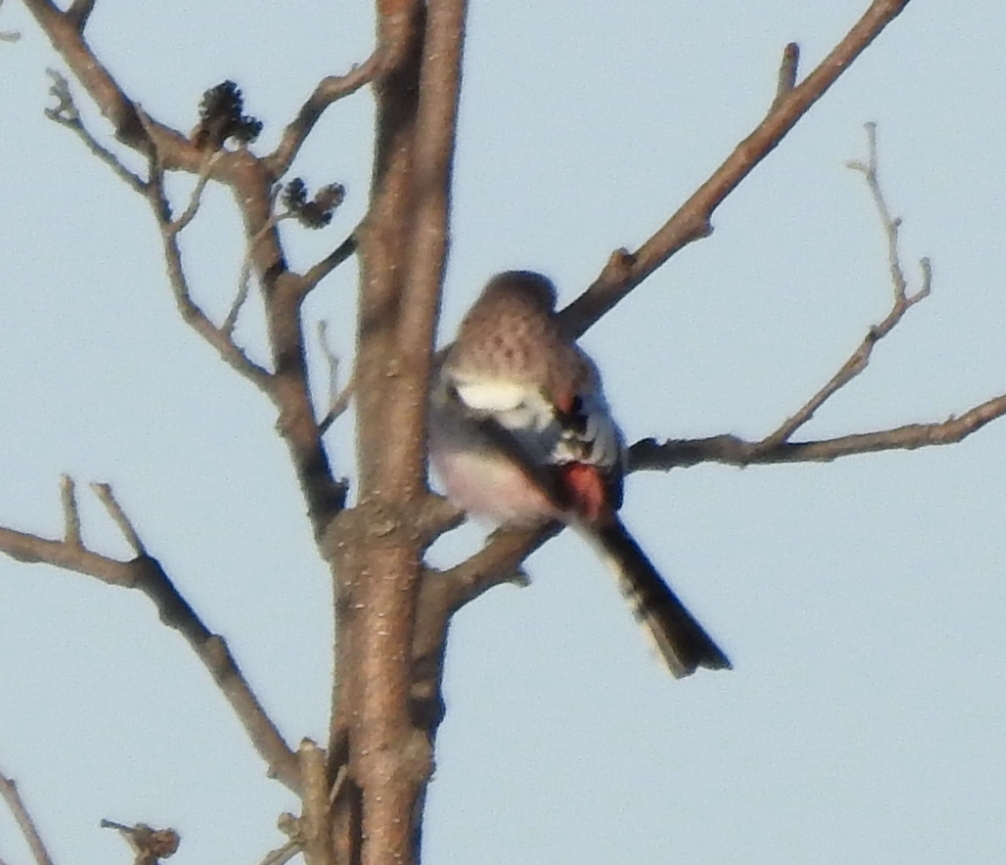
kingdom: Animalia
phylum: Chordata
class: Aves
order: Passeriformes
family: Fringillidae
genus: Carpodacus
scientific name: Carpodacus sibiricus
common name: Long-tailed rosefinch
